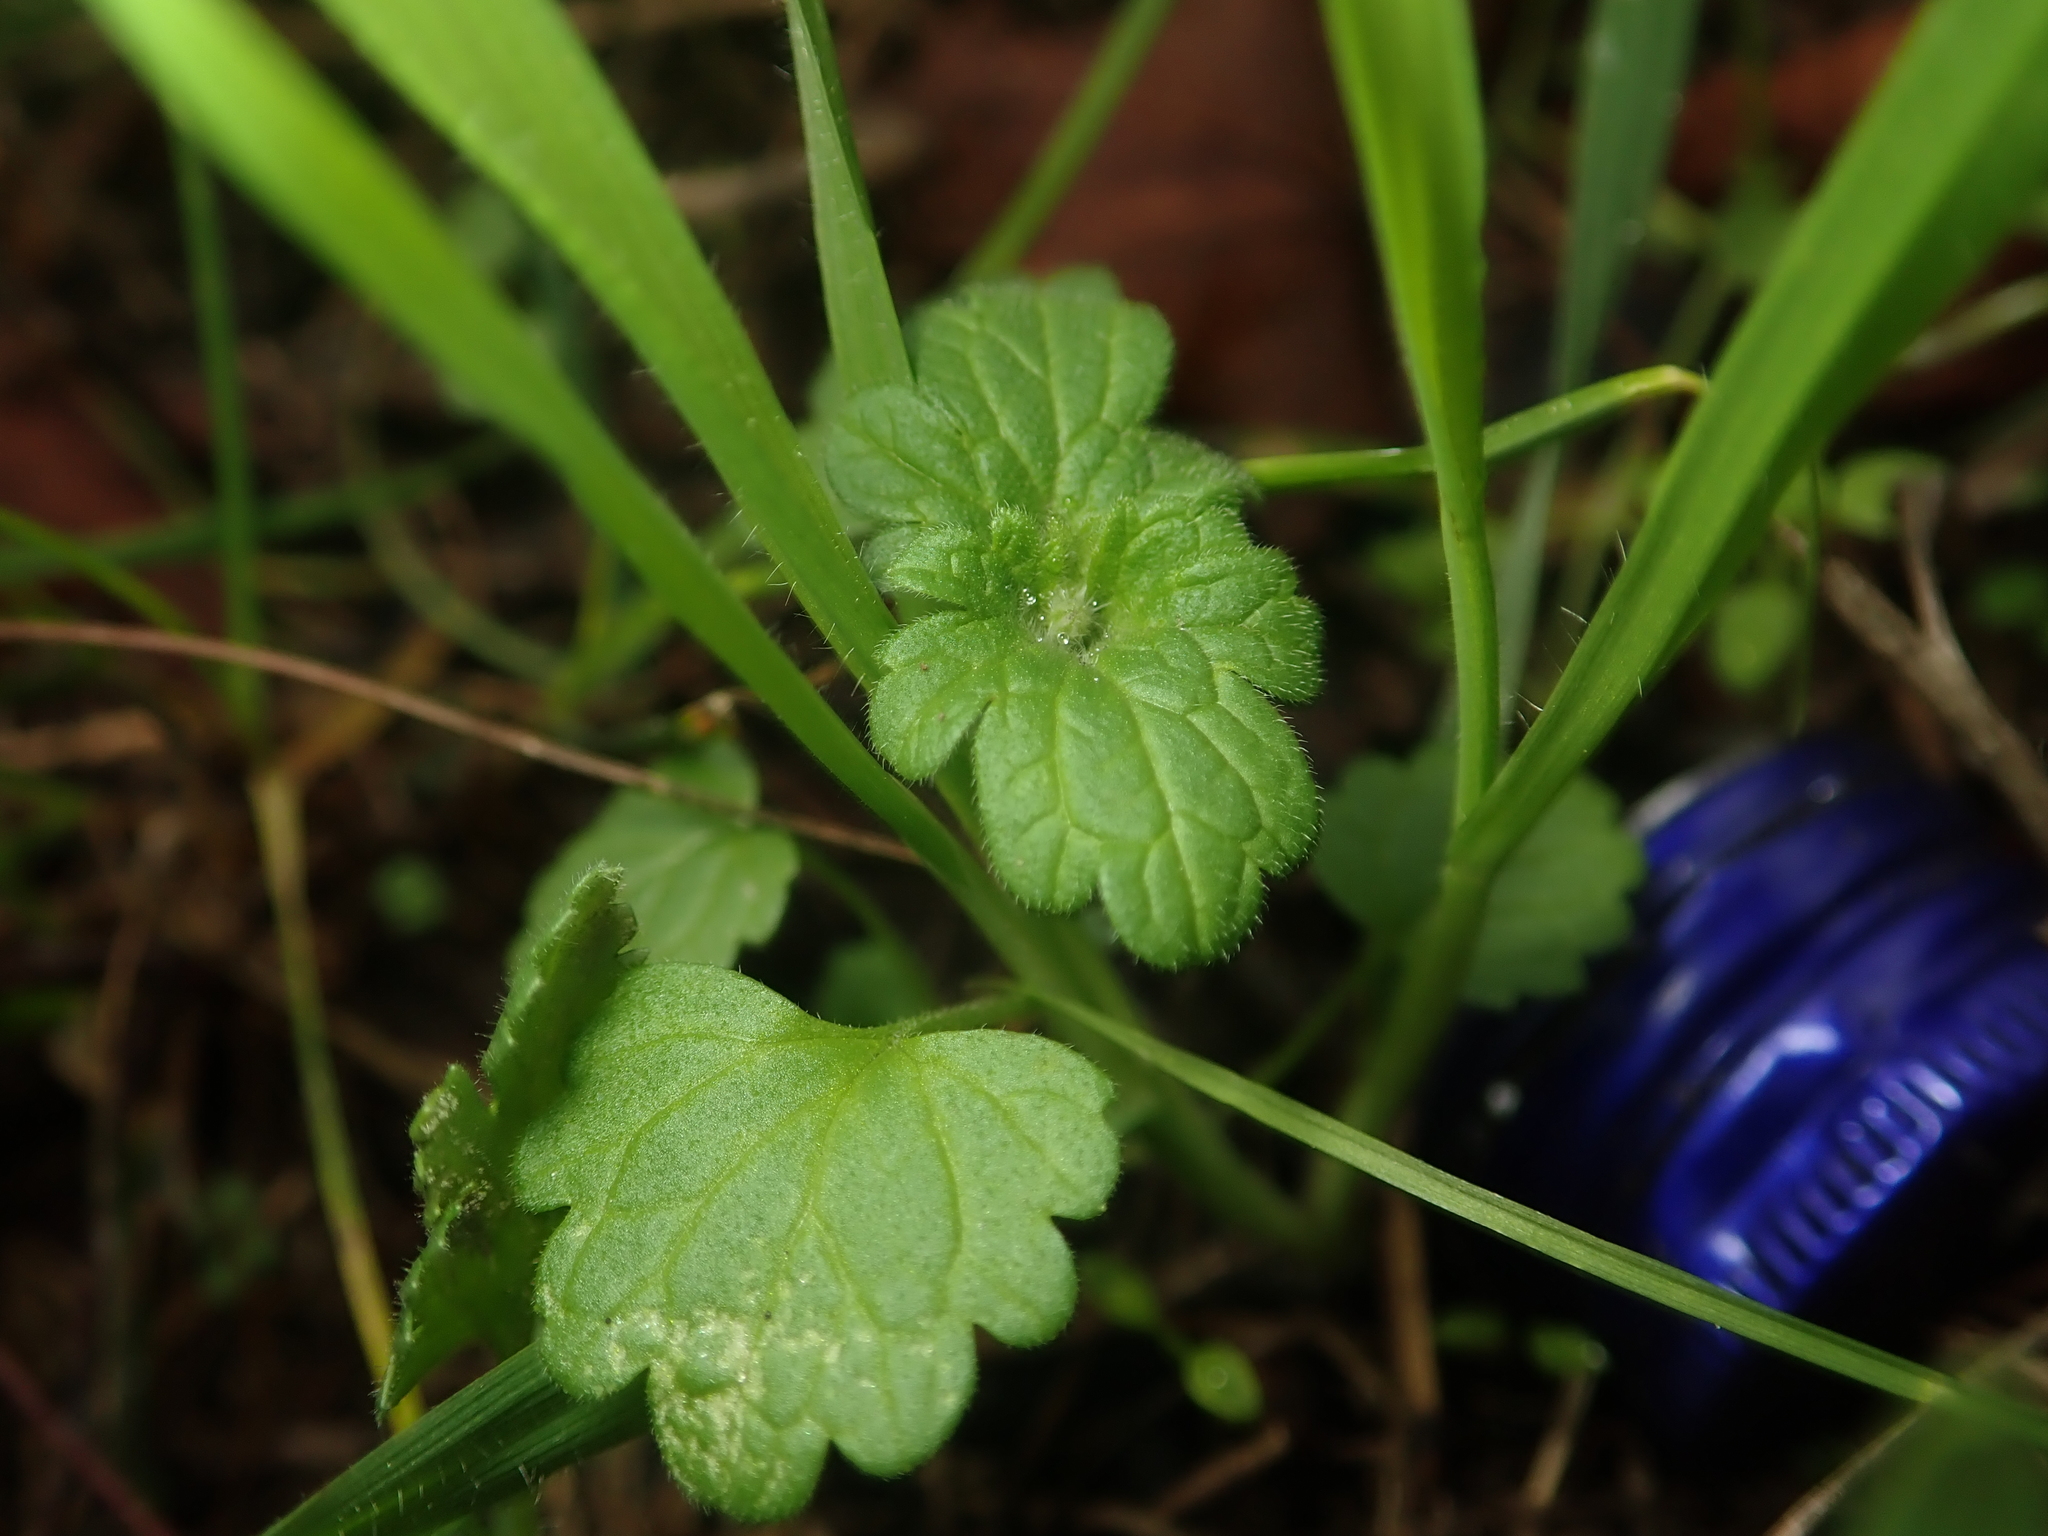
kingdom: Plantae
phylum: Tracheophyta
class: Magnoliopsida
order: Lamiales
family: Lamiaceae
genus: Lamium
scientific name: Lamium amplexicaule
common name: Henbit dead-nettle
